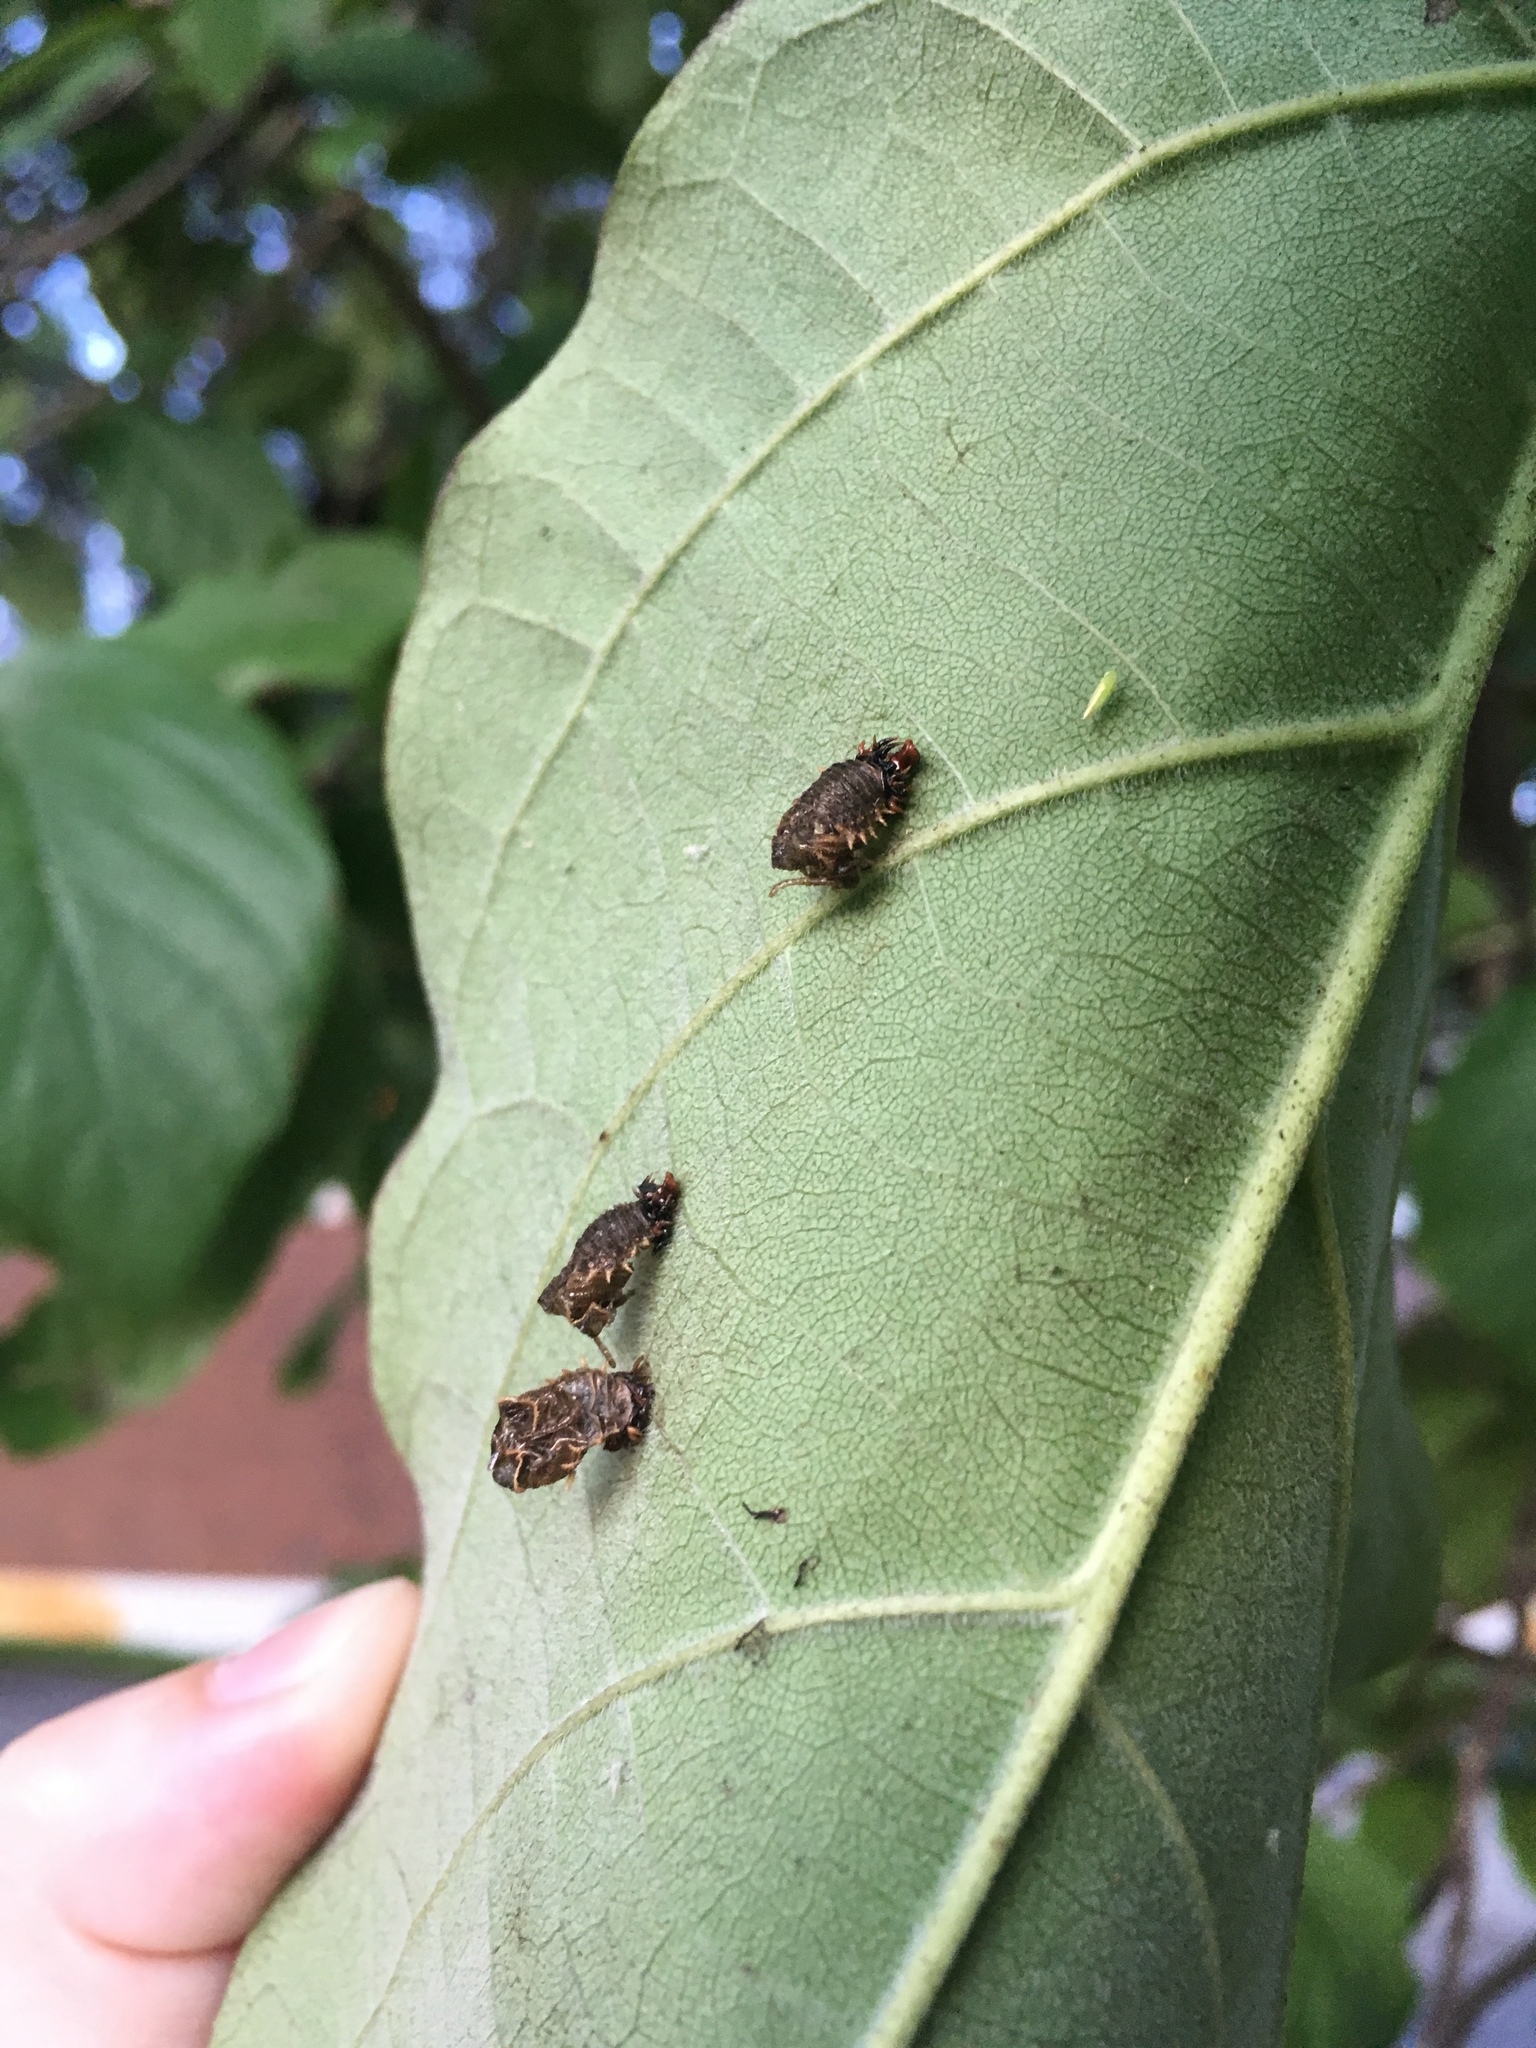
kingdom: Animalia
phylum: Arthropoda
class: Insecta
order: Coleoptera
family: Chrysomelidae
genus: Eurypepla
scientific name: Eurypepla calochroma
